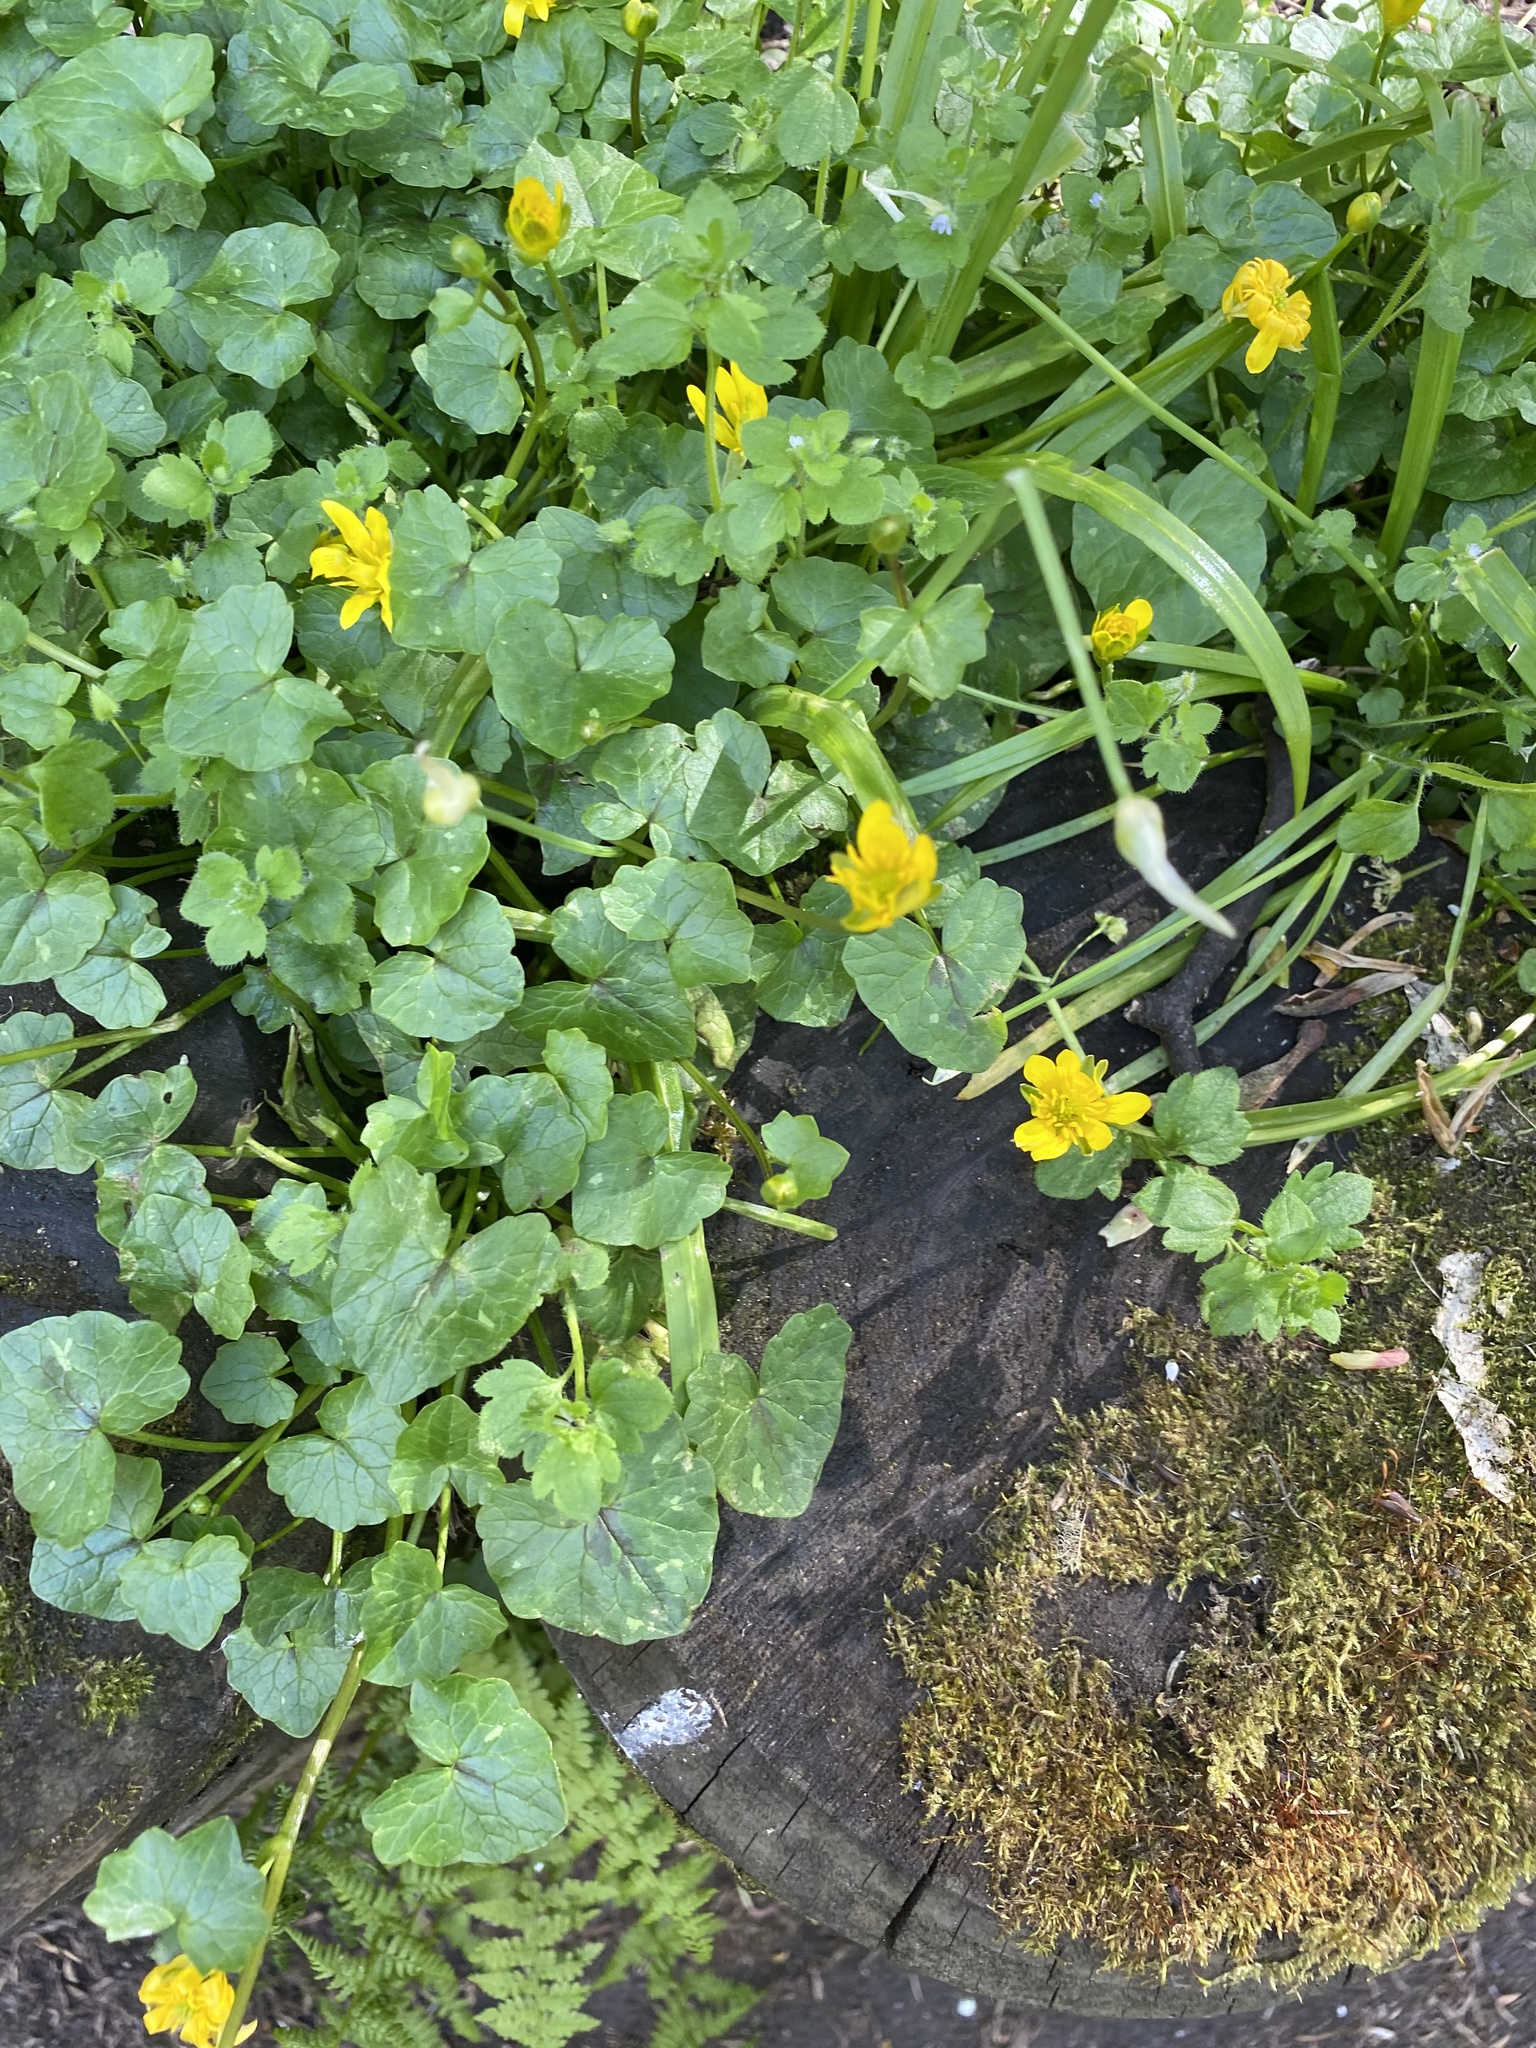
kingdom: Plantae
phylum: Tracheophyta
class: Magnoliopsida
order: Ranunculales
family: Ranunculaceae
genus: Ficaria
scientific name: Ficaria verna
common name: Lesser celandine
